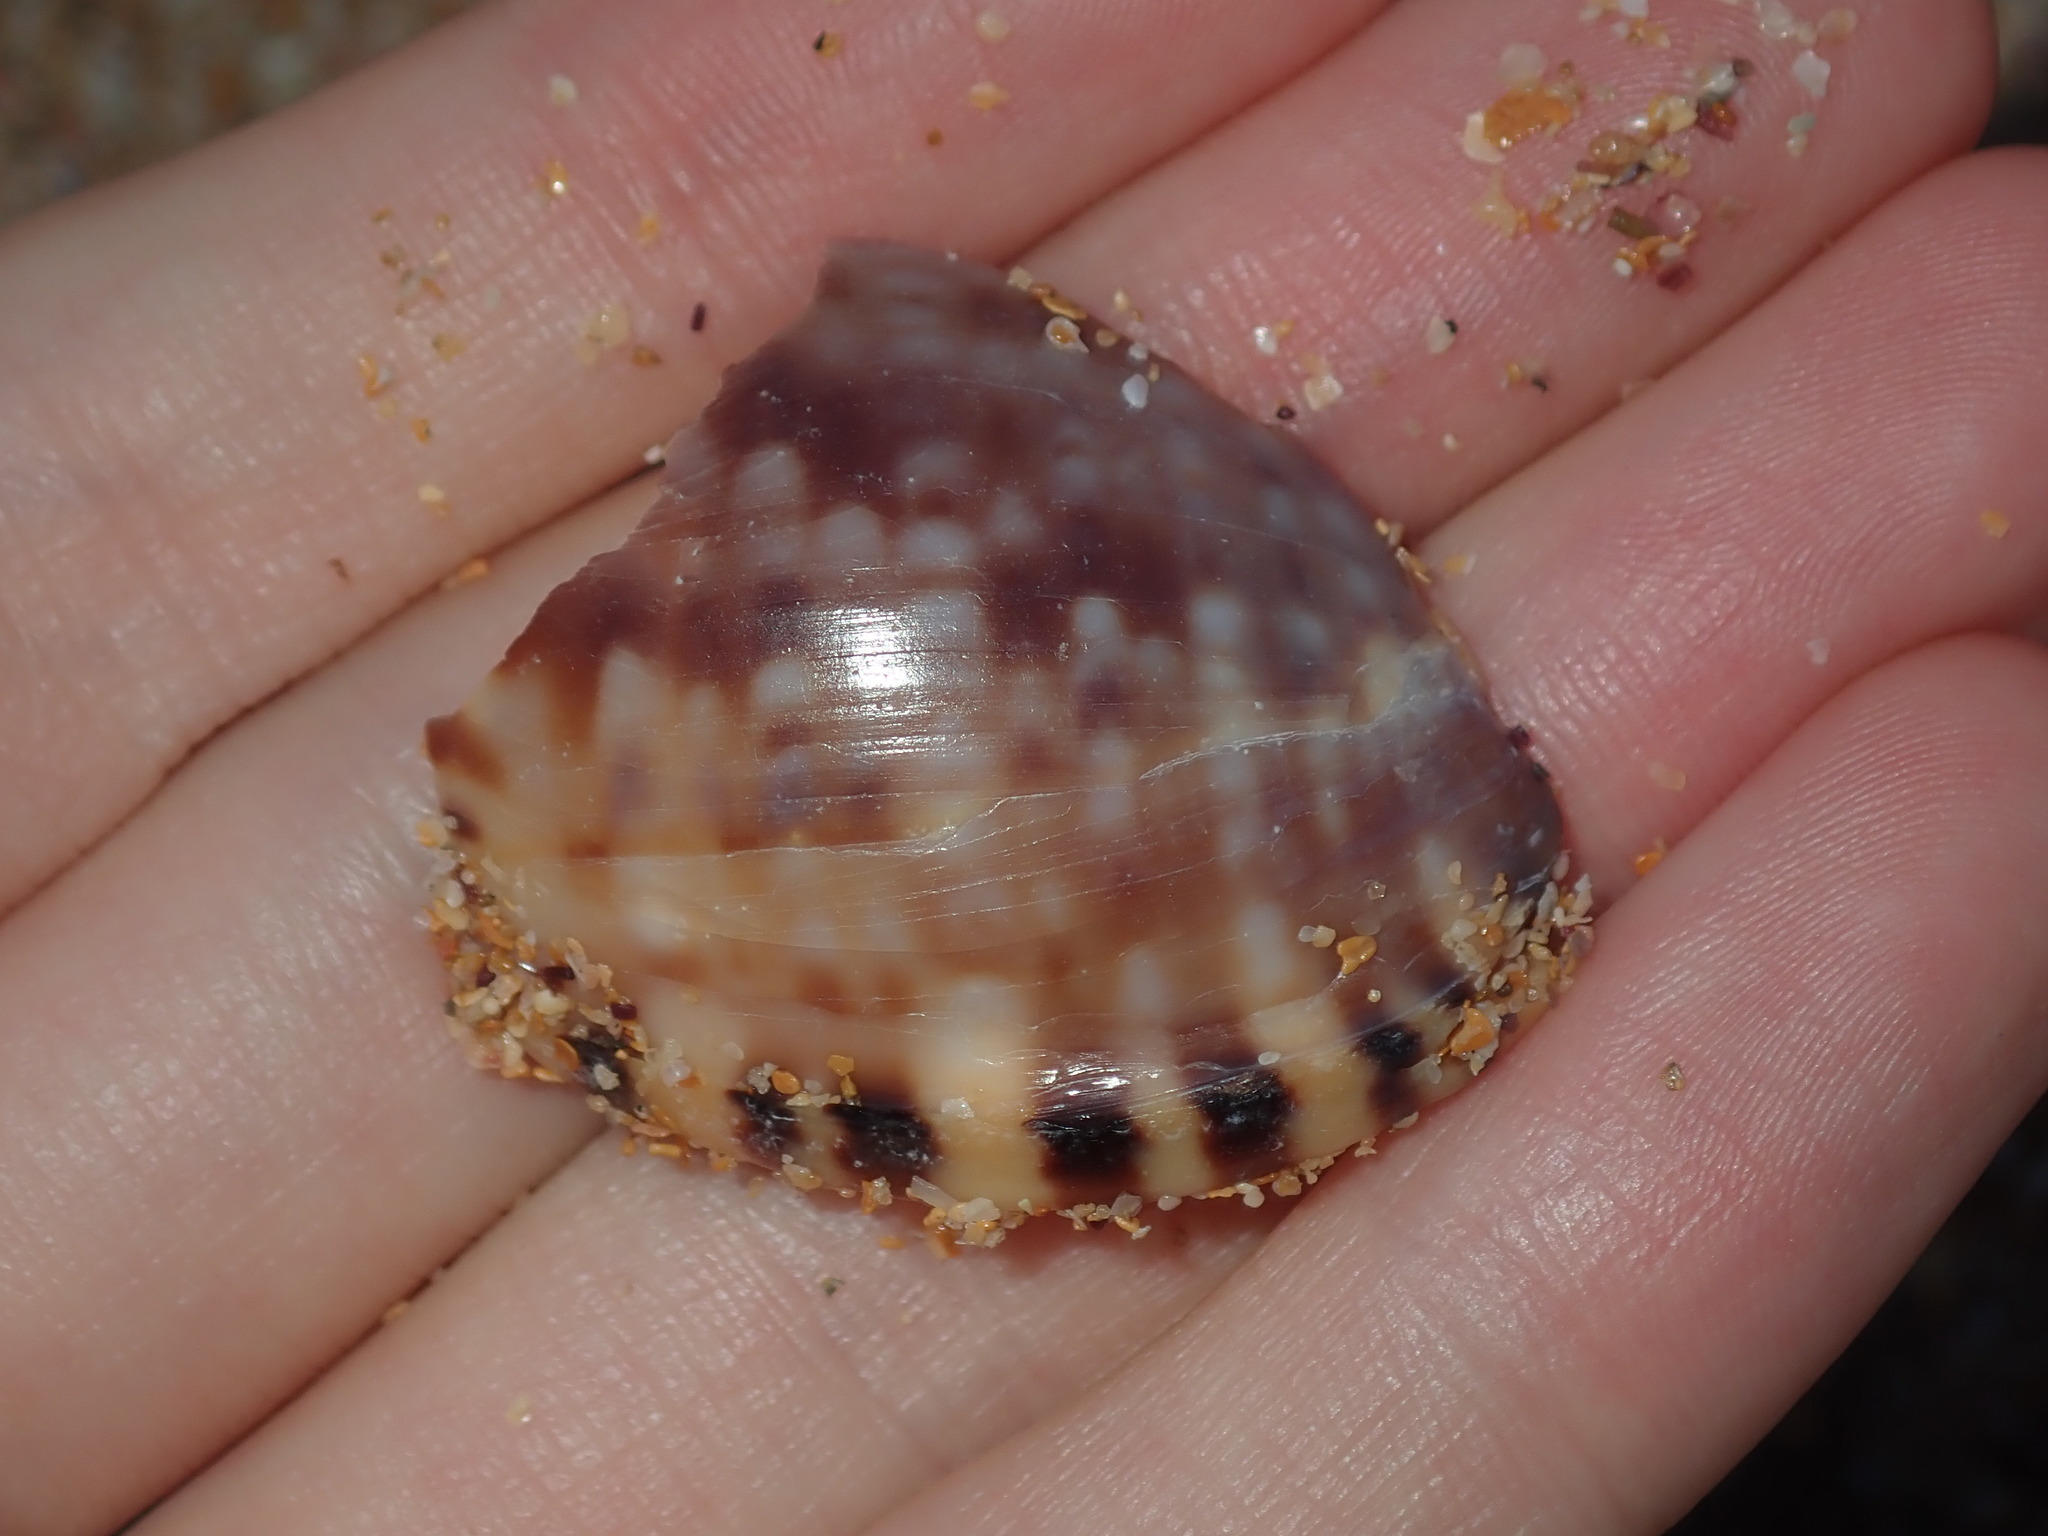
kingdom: Animalia
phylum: Mollusca
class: Gastropoda
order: Littorinimorpha
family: Cassidae
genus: Semicassis
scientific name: Semicassis labiata
